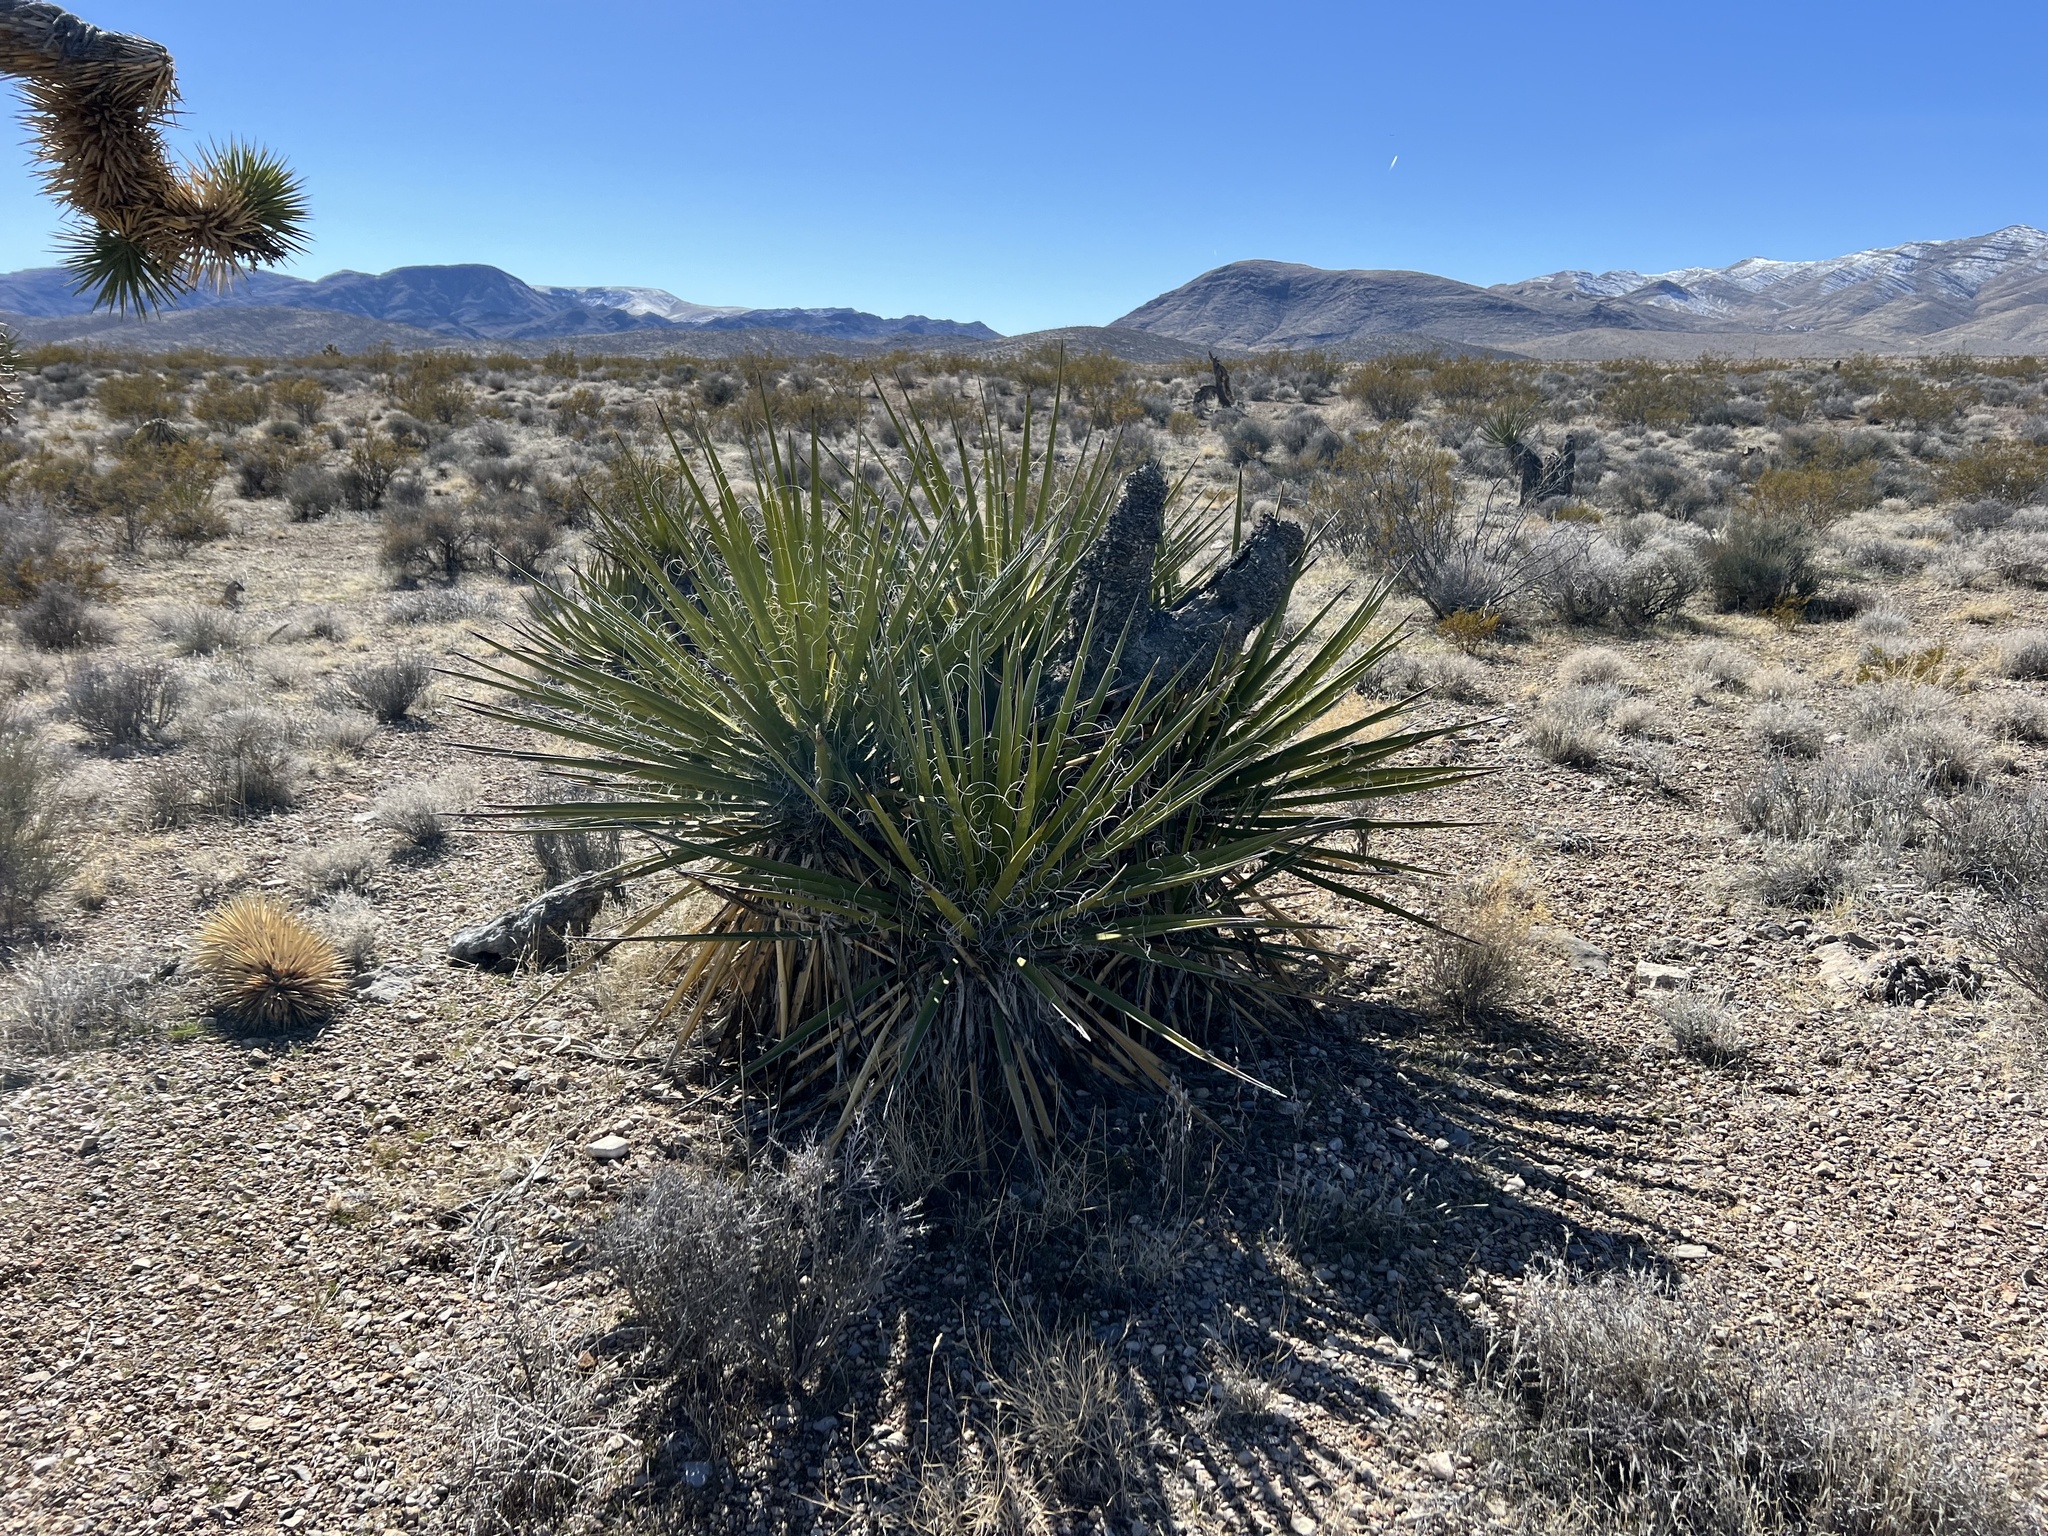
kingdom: Plantae
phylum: Tracheophyta
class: Liliopsida
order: Asparagales
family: Asparagaceae
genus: Yucca
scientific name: Yucca schidigera
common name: Mojave yucca
